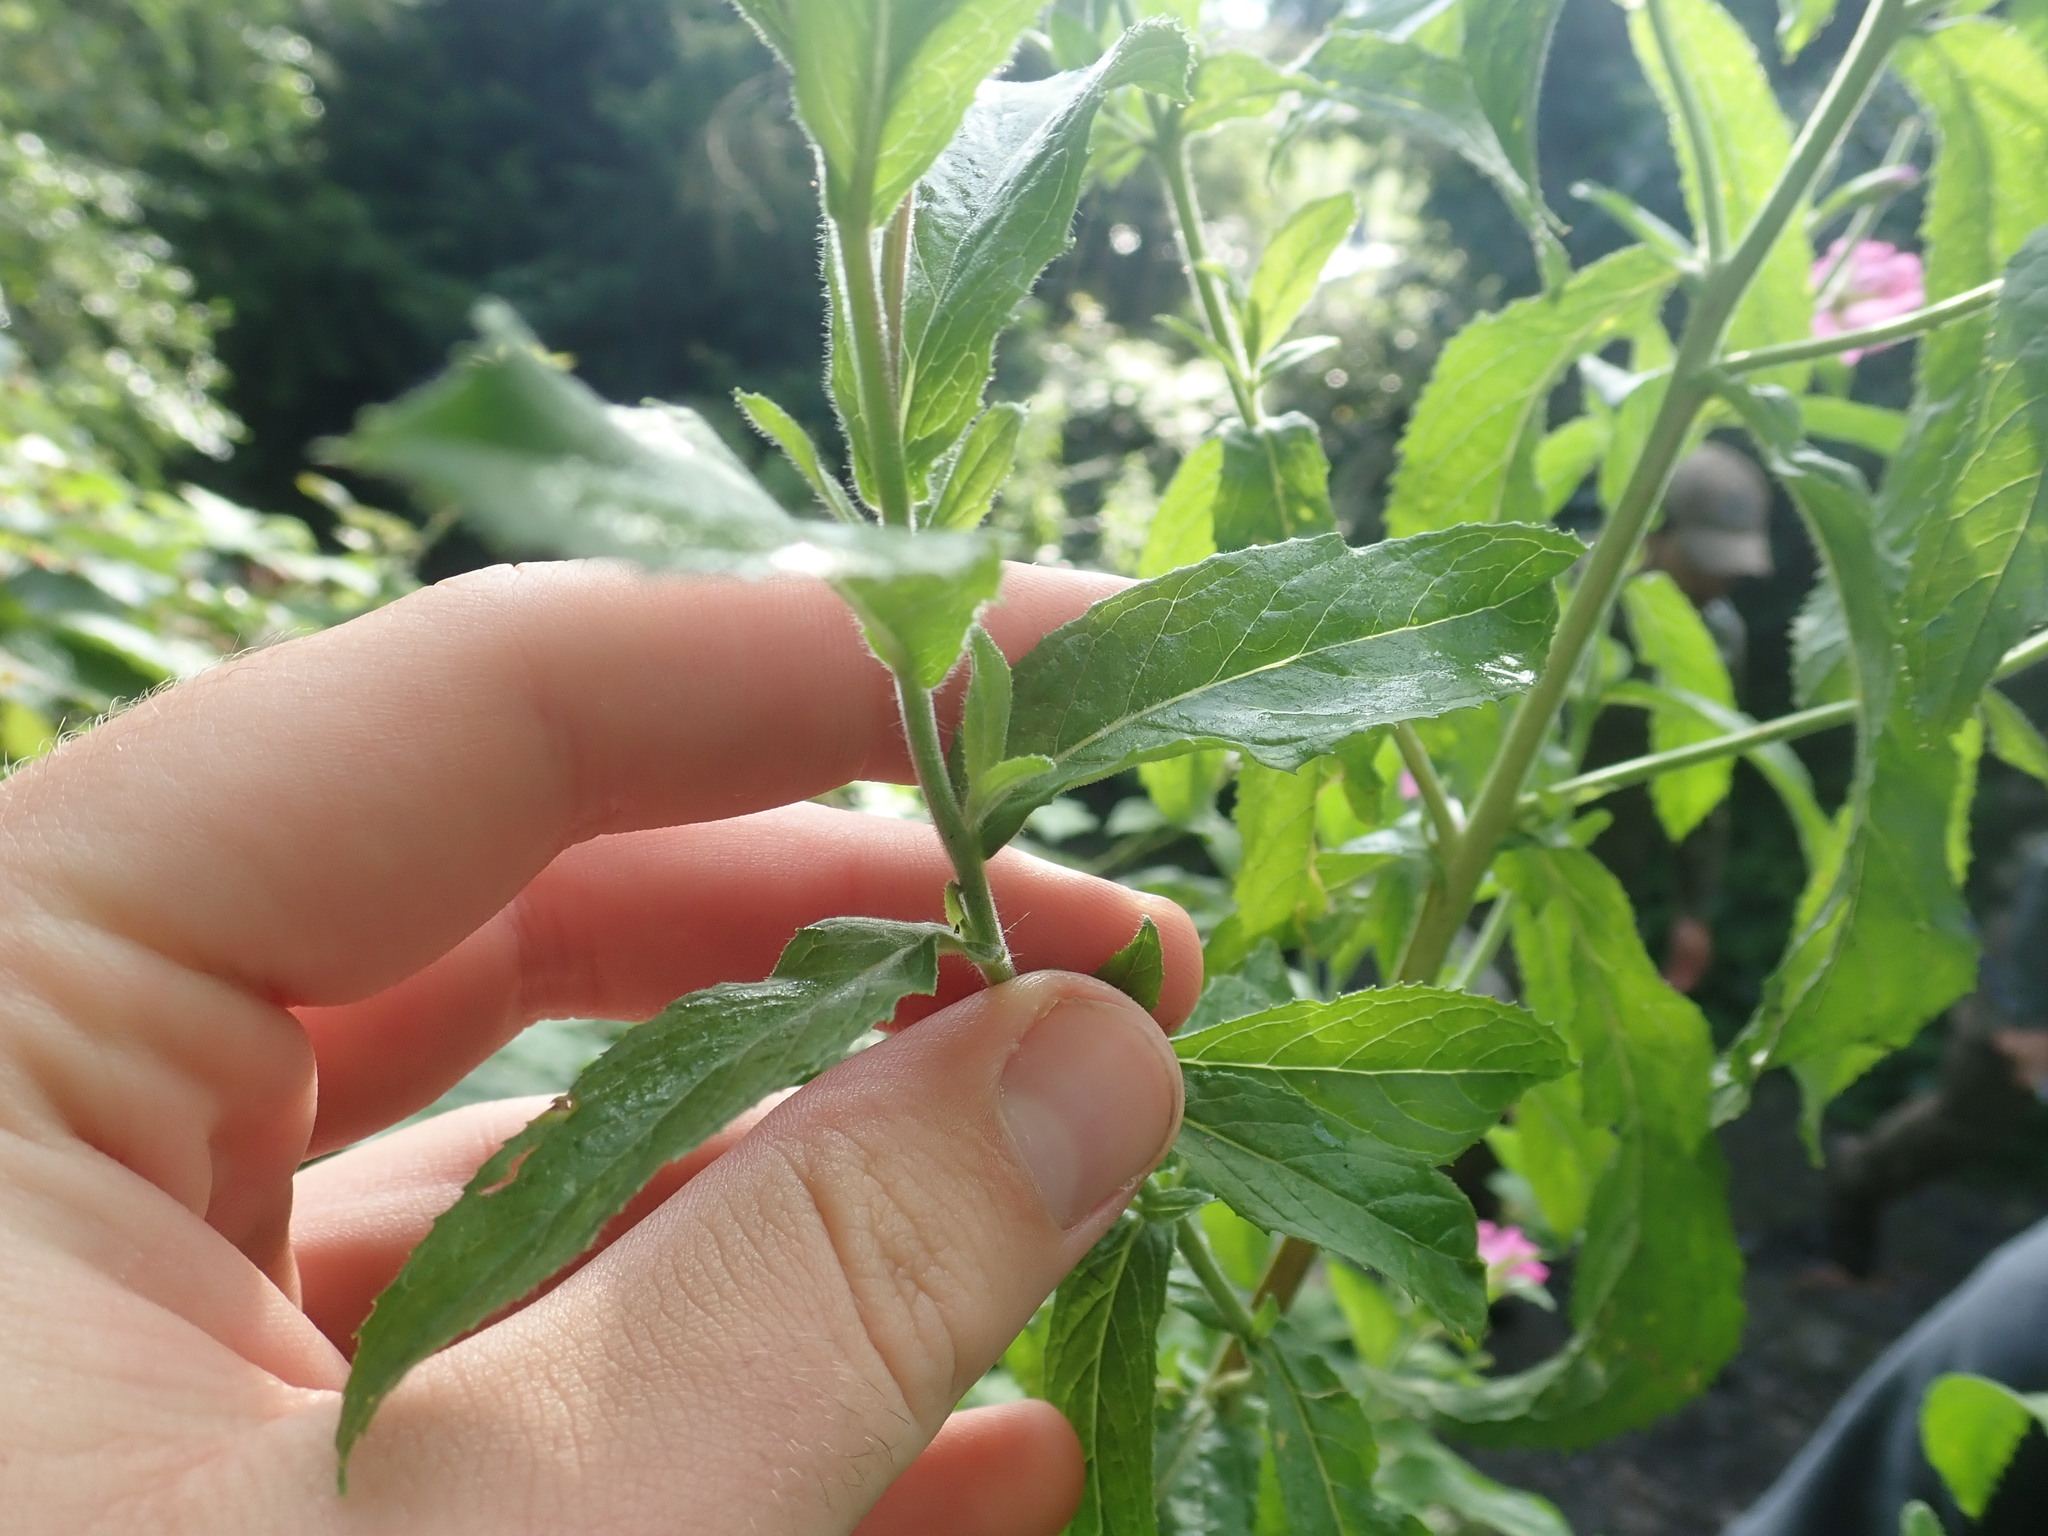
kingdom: Plantae
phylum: Tracheophyta
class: Magnoliopsida
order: Myrtales
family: Onagraceae
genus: Epilobium
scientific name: Epilobium hirsutum
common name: Great willowherb
